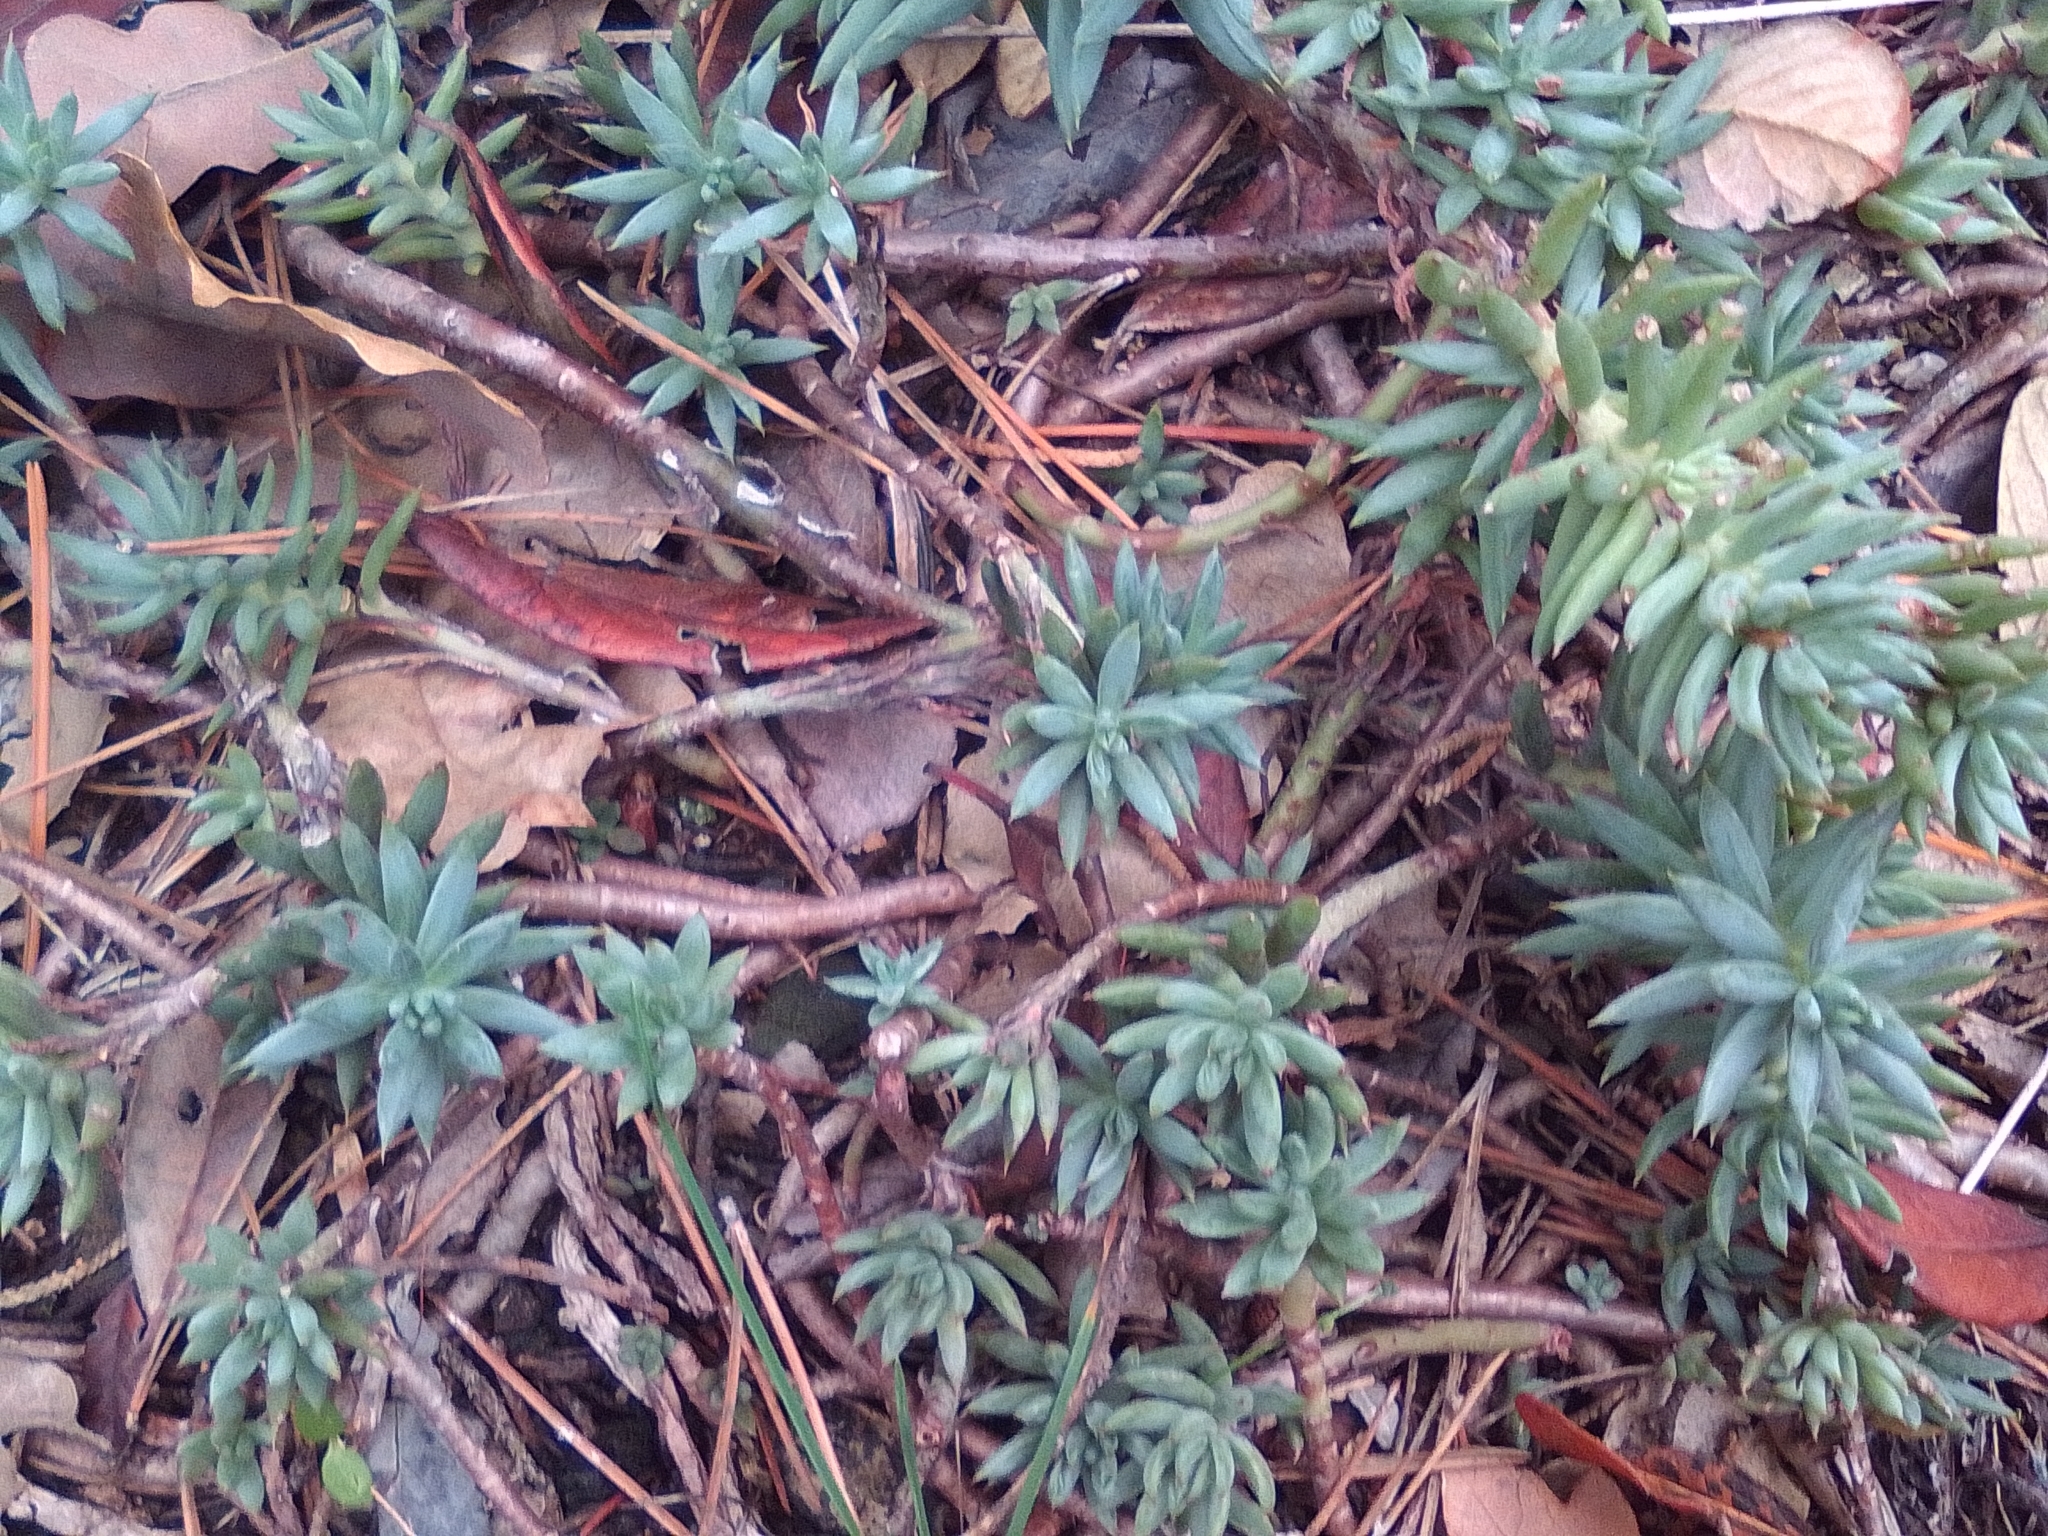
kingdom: Plantae
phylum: Tracheophyta
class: Magnoliopsida
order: Saxifragales
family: Crassulaceae
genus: Petrosedum
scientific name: Petrosedum rupestre
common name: Jenny's stonecrop
